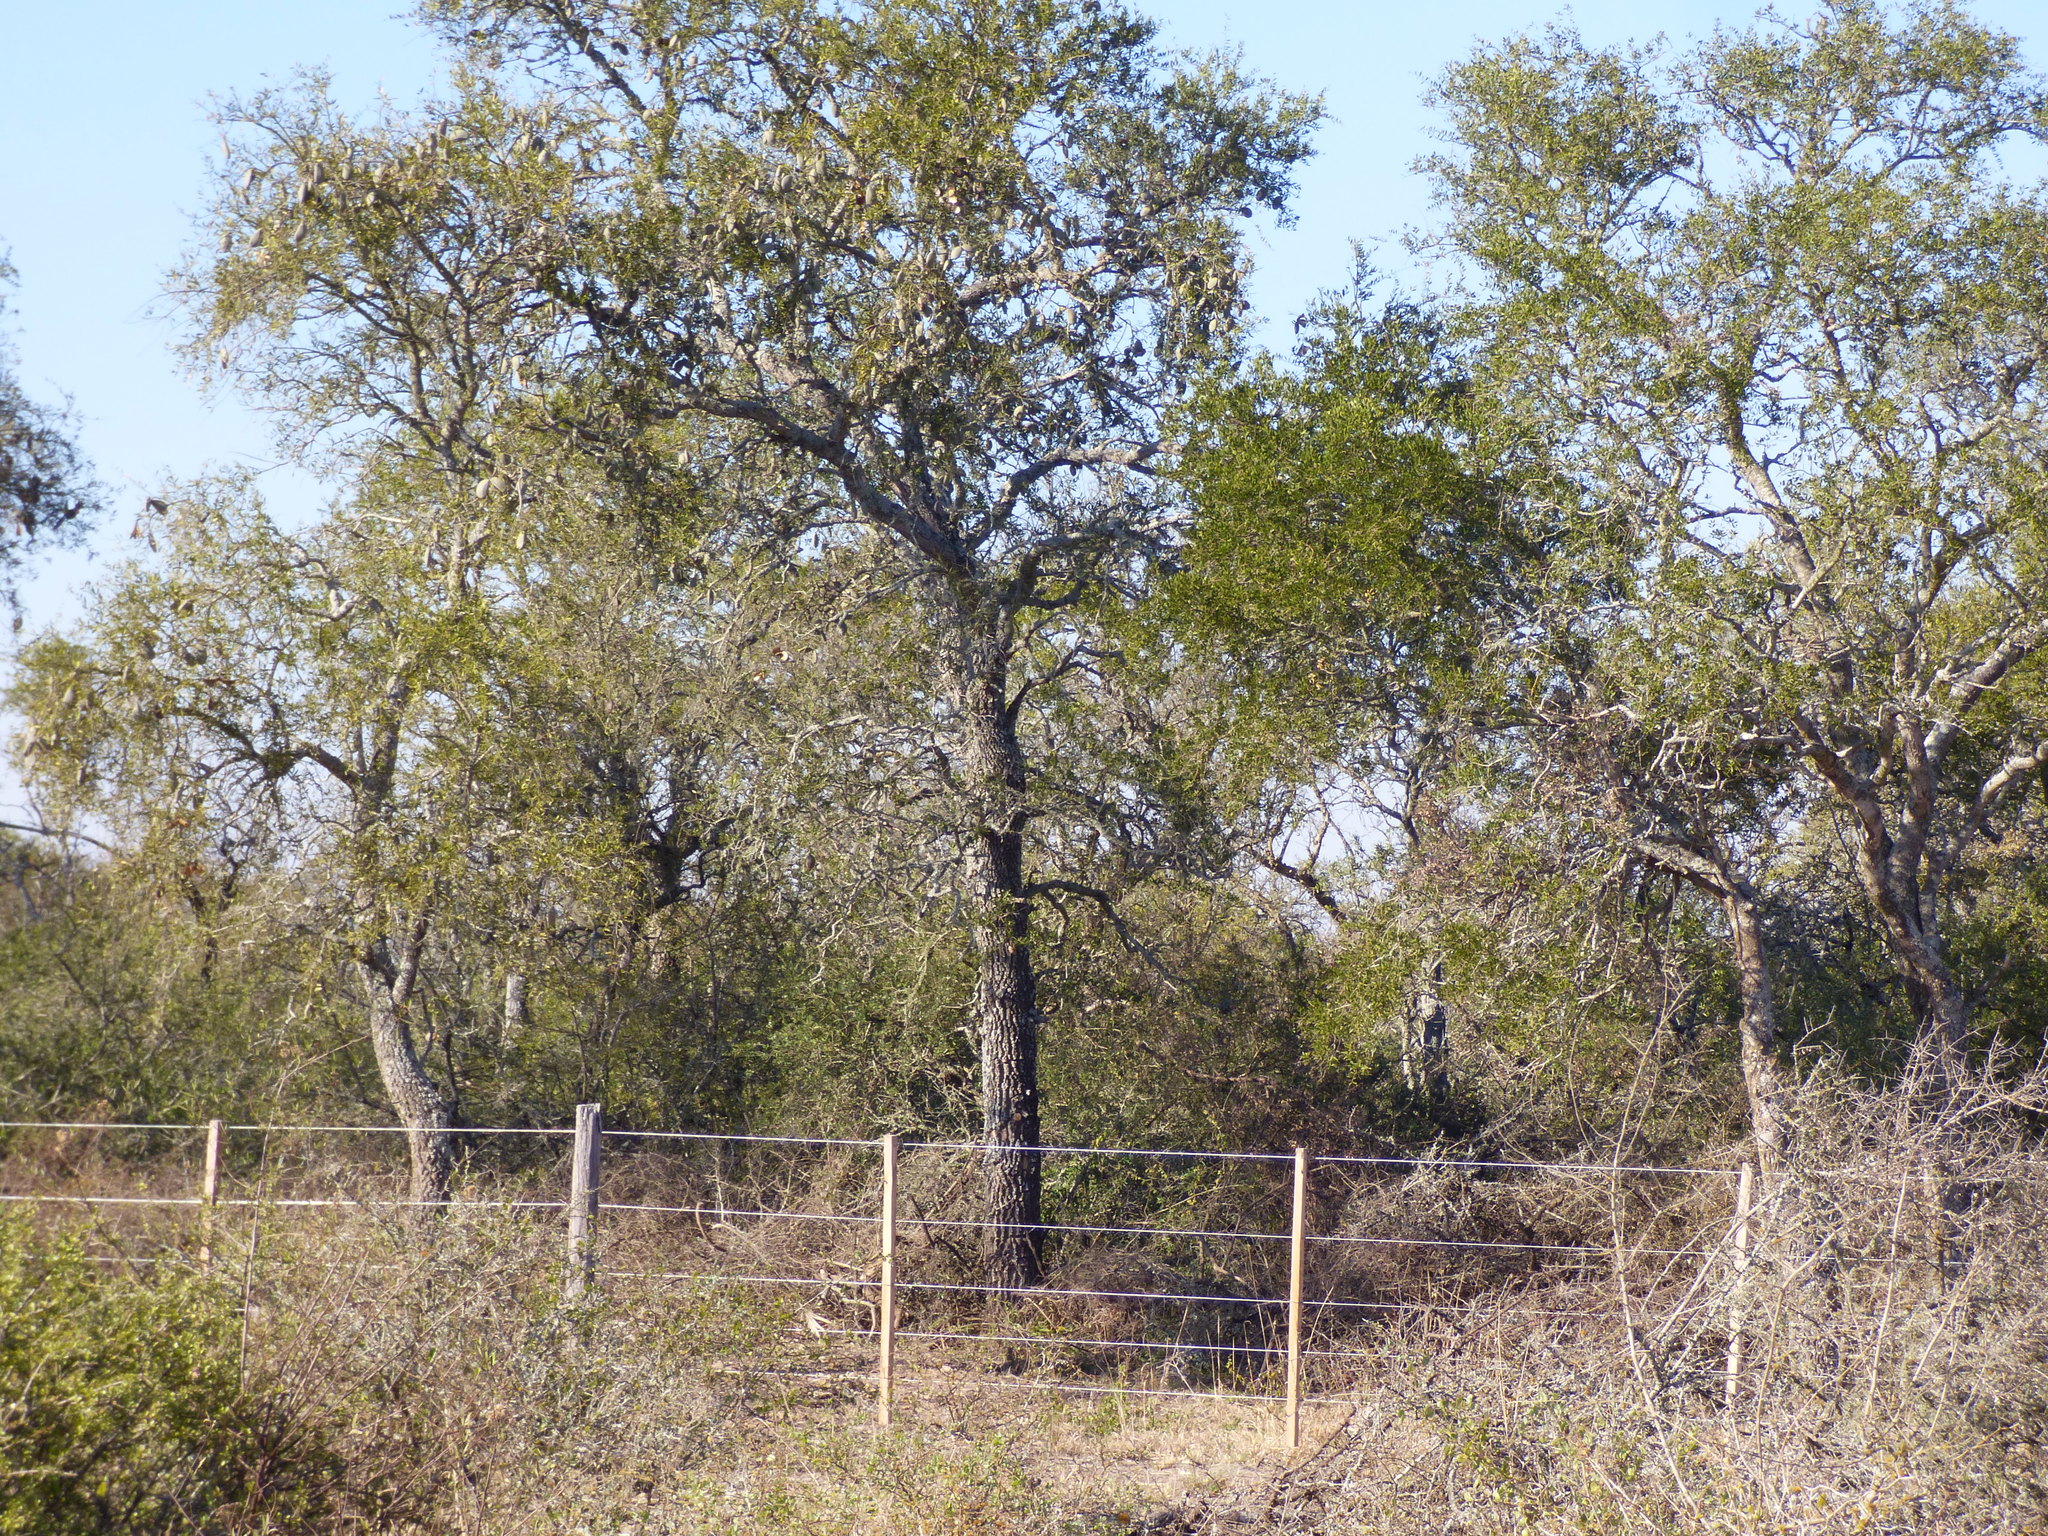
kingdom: Plantae
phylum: Tracheophyta
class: Magnoliopsida
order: Gentianales
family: Apocynaceae
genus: Aspidosperma
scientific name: Aspidosperma quebracho-blanco
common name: White quebracho
